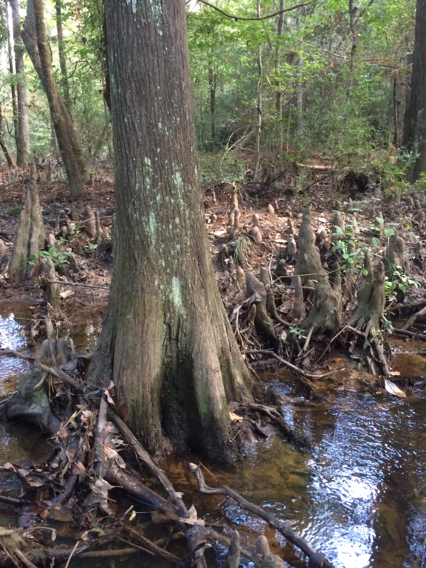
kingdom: Plantae
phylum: Tracheophyta
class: Pinopsida
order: Pinales
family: Cupressaceae
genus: Taxodium
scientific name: Taxodium distichum
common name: Bald cypress
